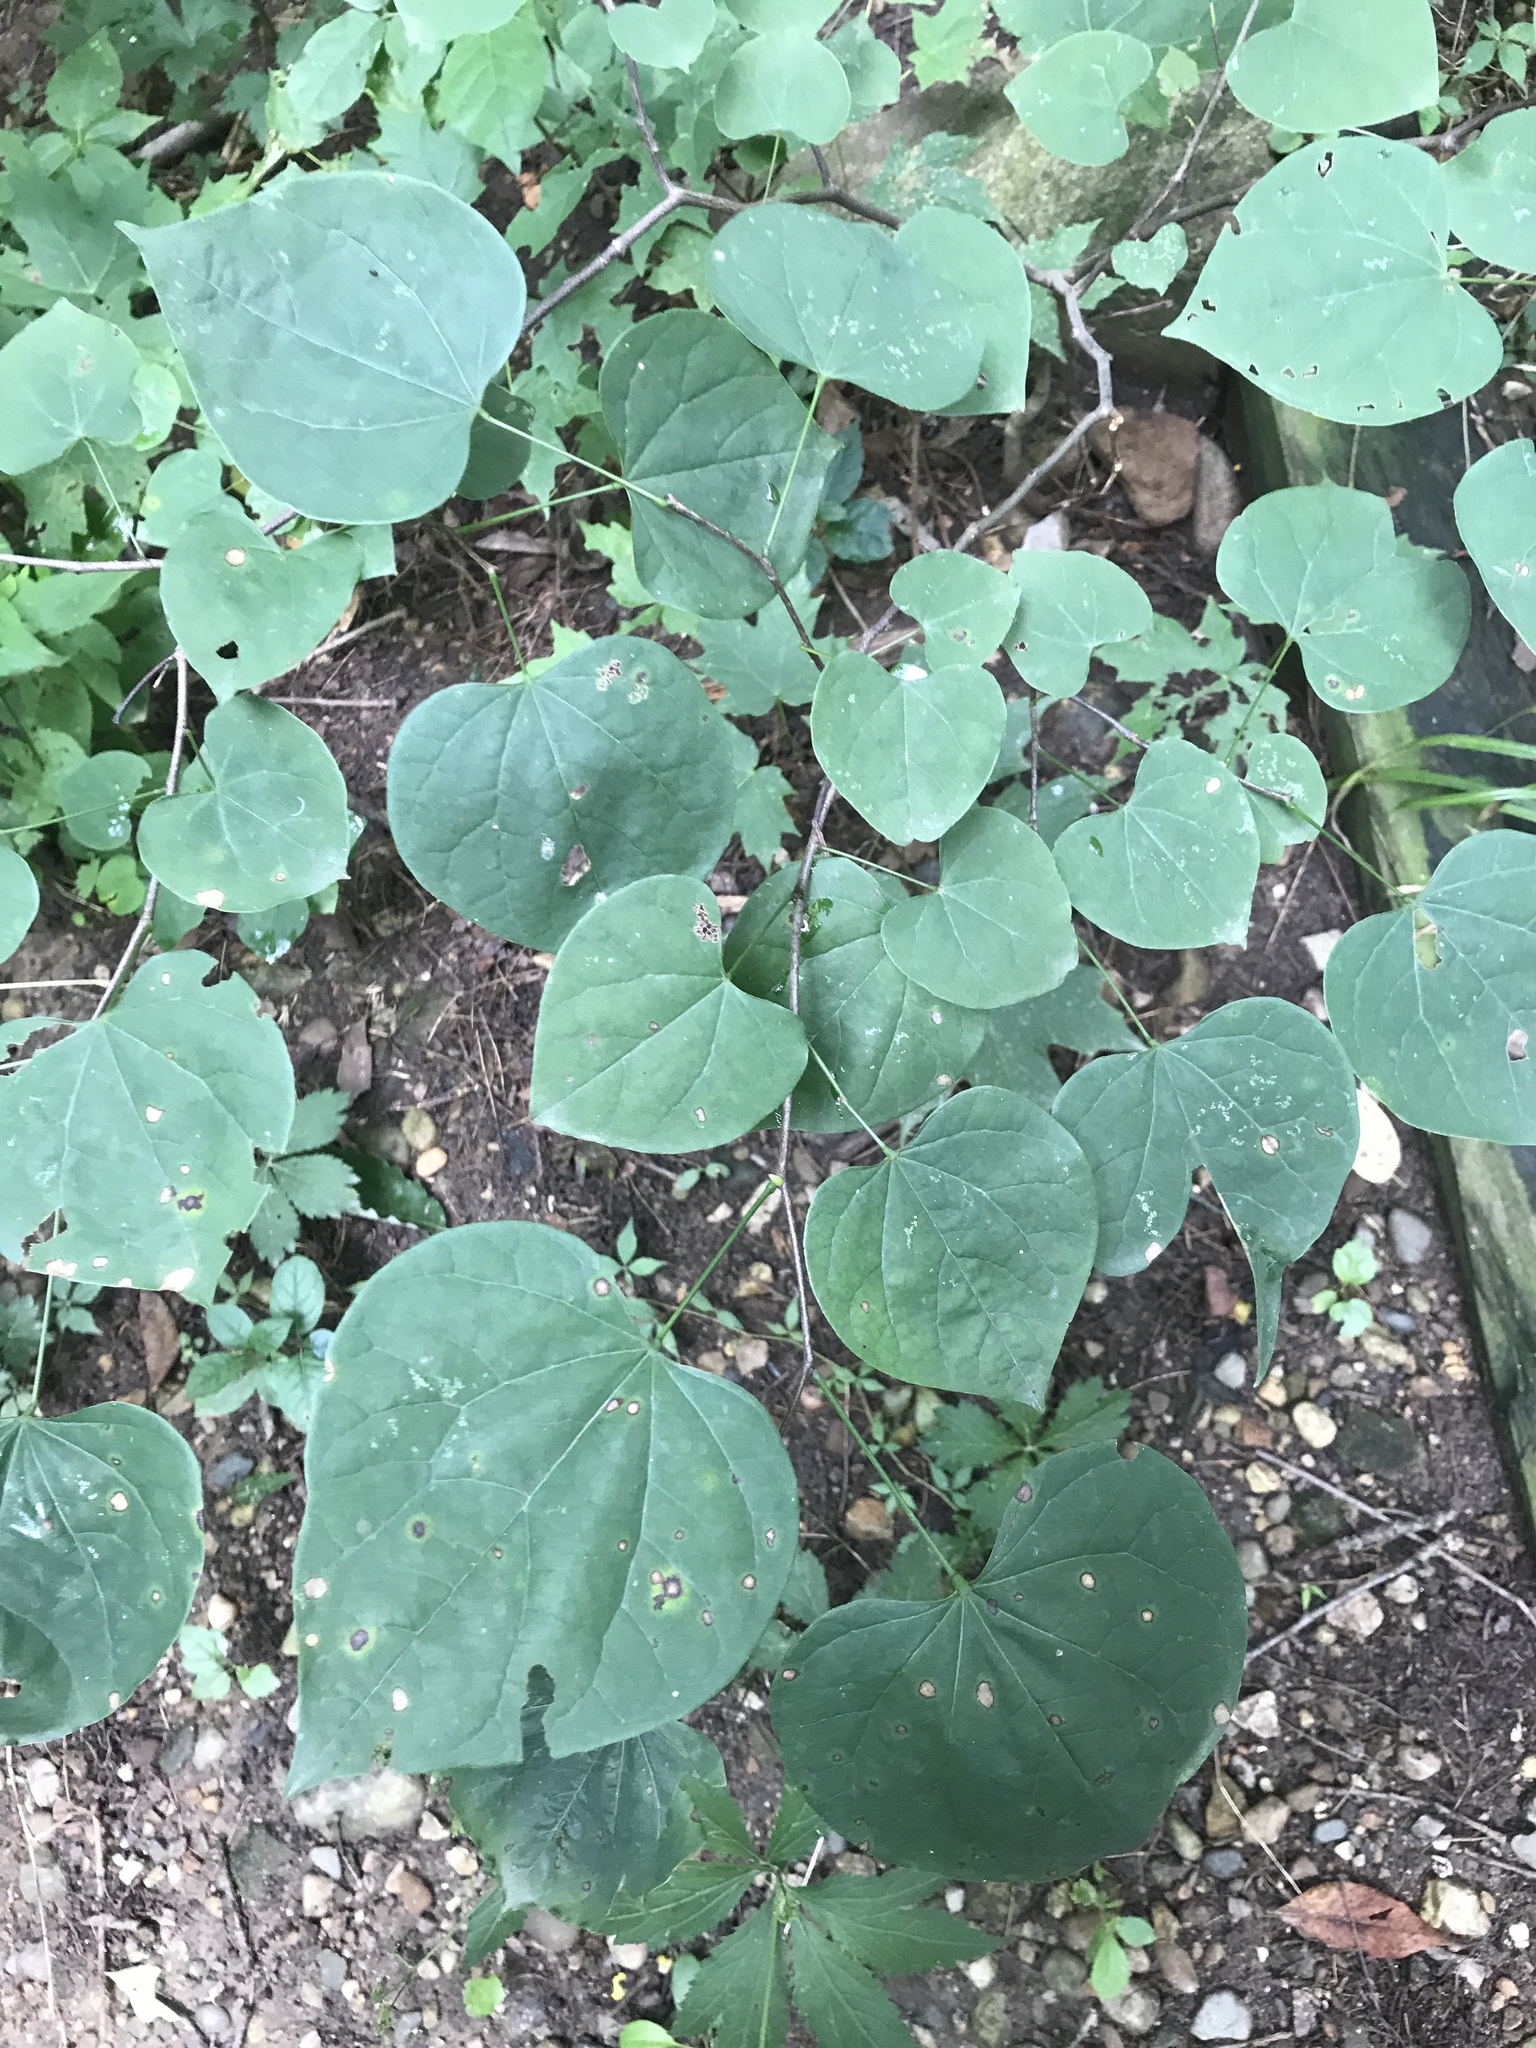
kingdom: Plantae
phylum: Tracheophyta
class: Magnoliopsida
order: Fabales
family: Fabaceae
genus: Cercis
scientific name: Cercis canadensis
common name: Eastern redbud
